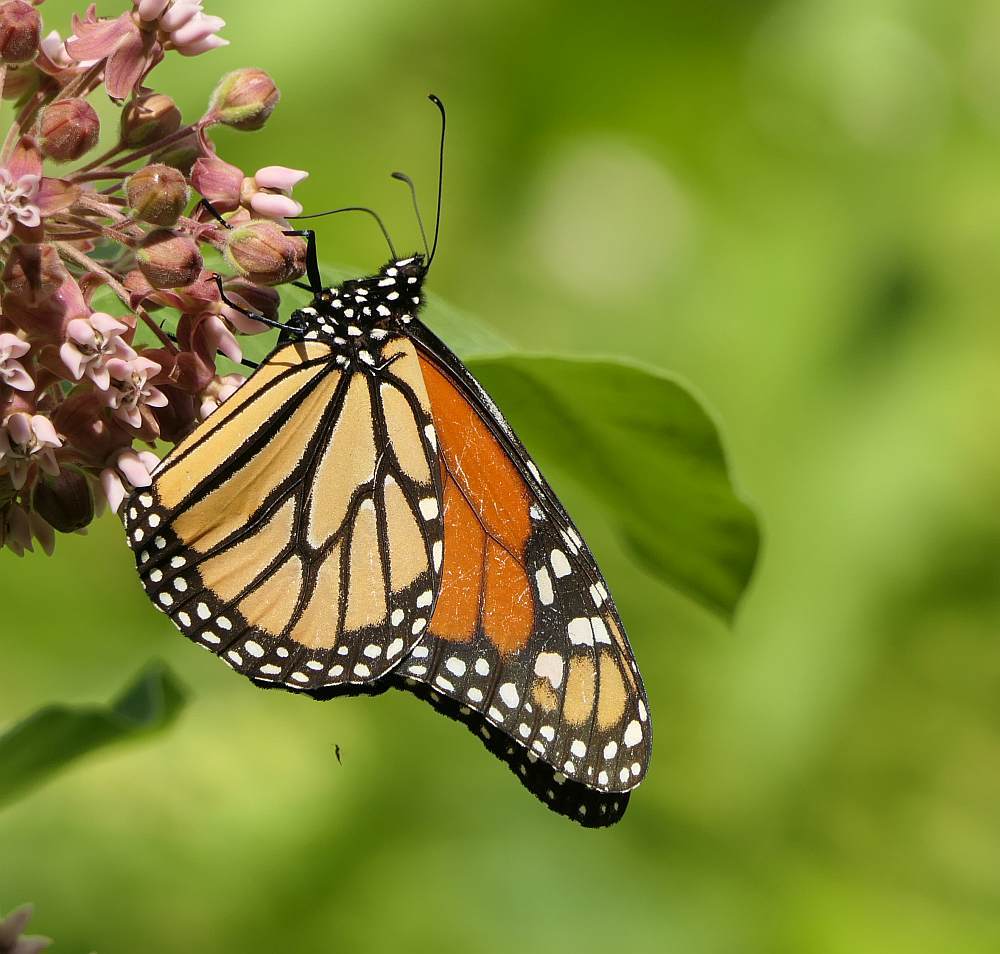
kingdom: Animalia
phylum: Arthropoda
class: Insecta
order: Lepidoptera
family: Nymphalidae
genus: Danaus
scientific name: Danaus plexippus
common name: Monarch
